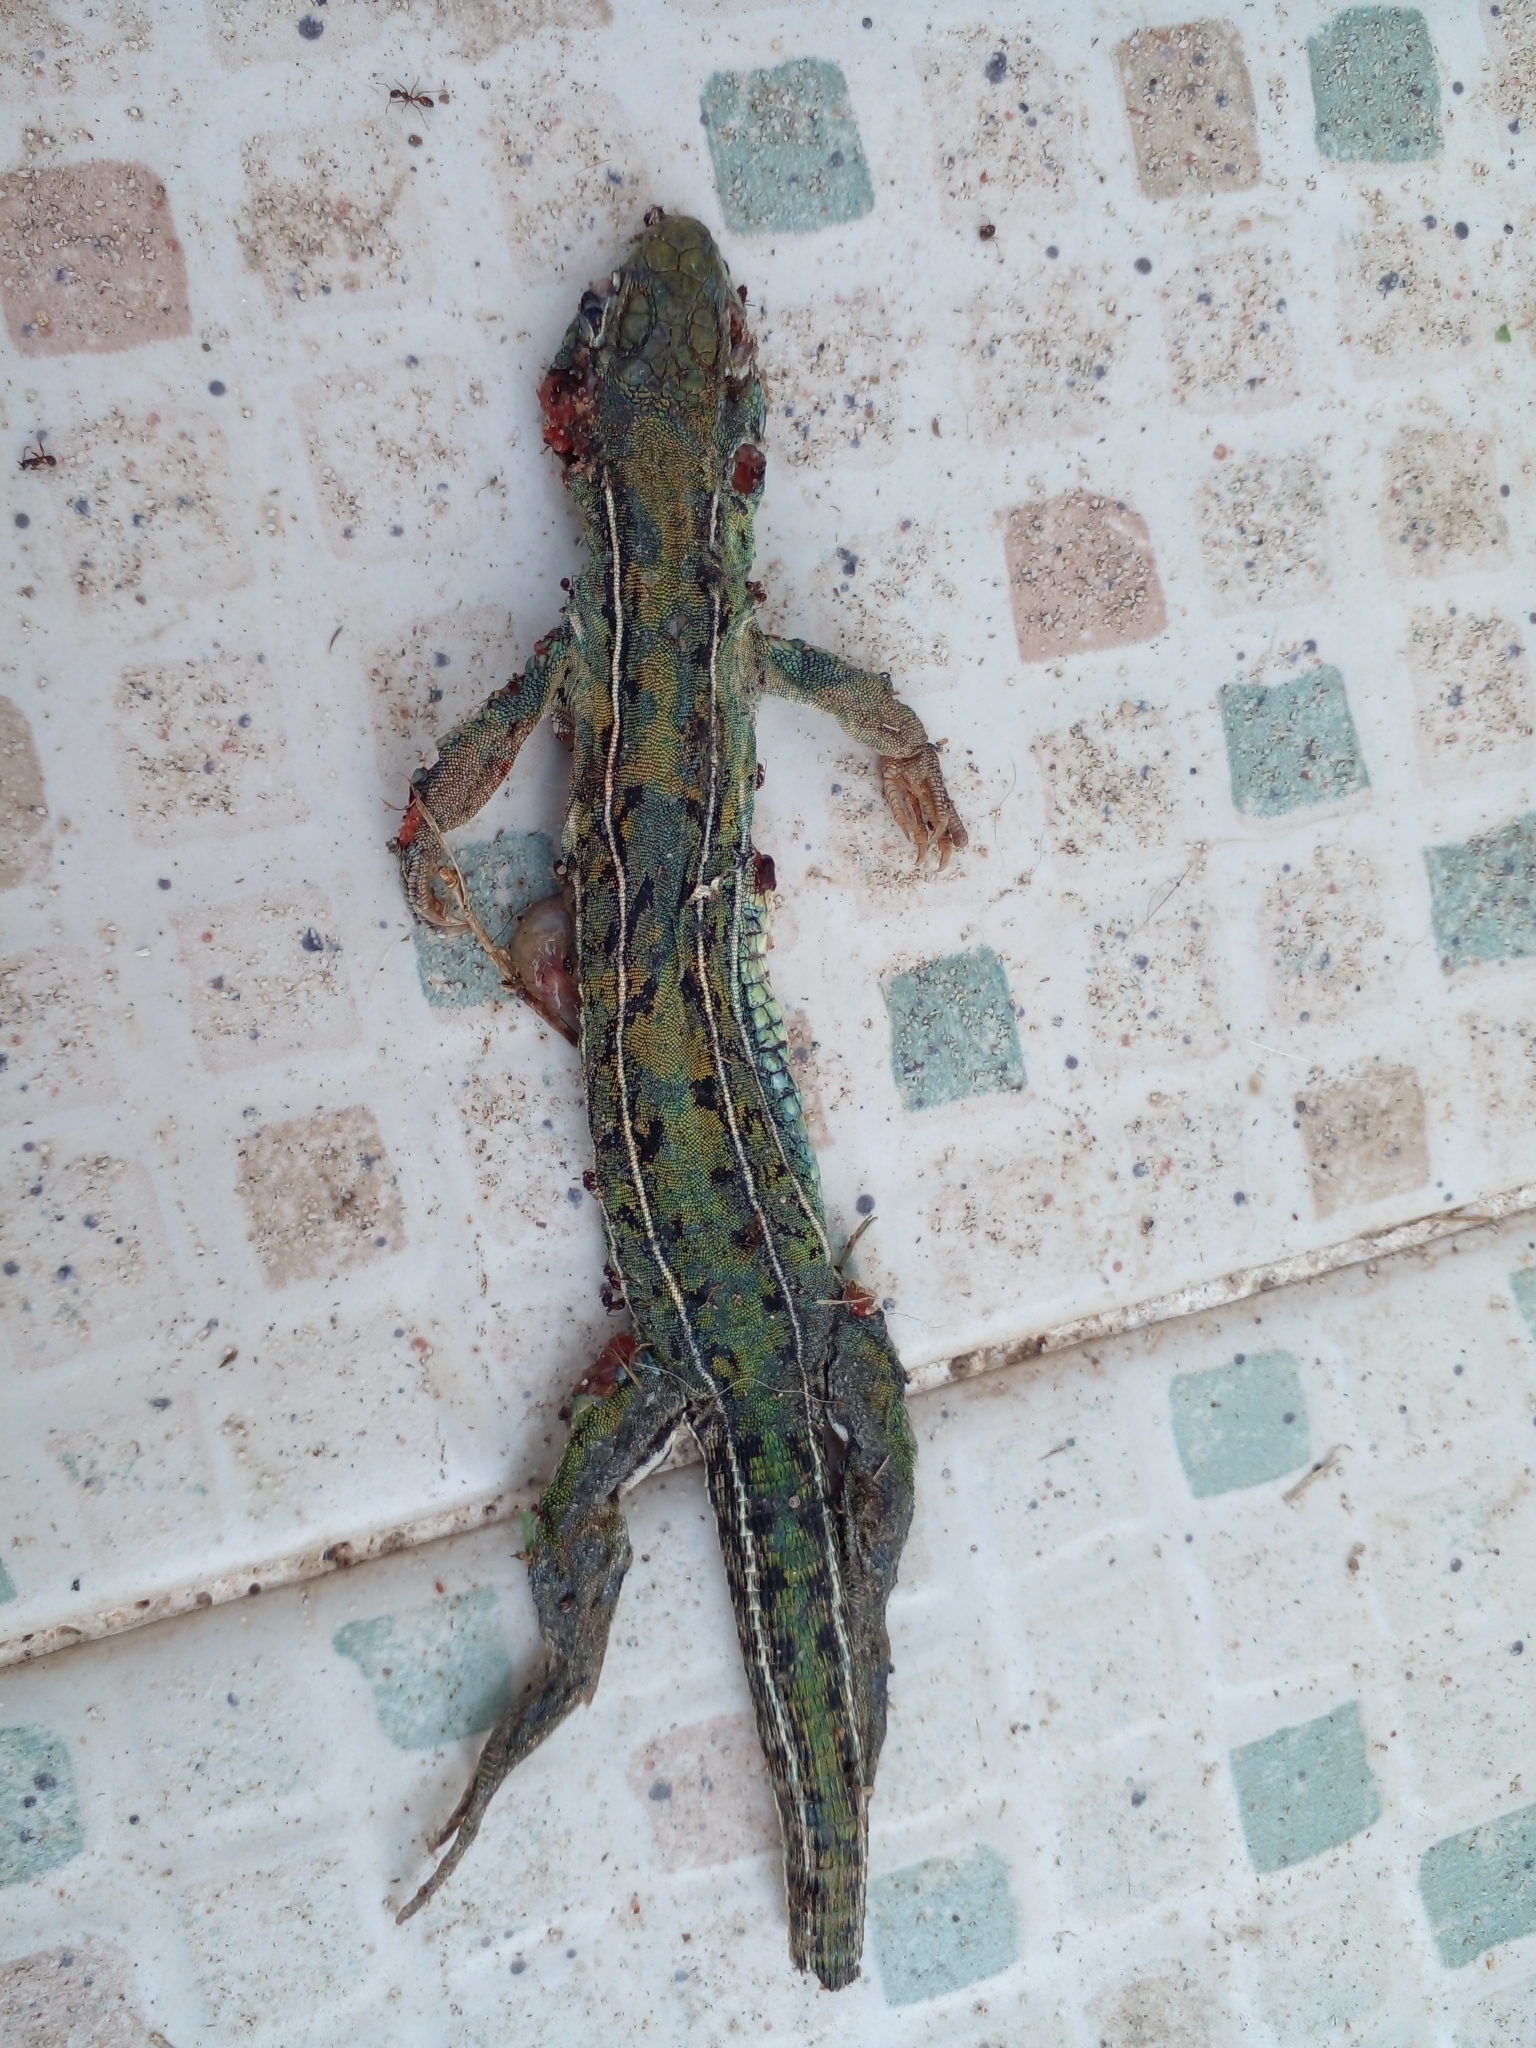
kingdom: Animalia
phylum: Chordata
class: Squamata
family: Teiidae
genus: Teius
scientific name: Teius oculatus
